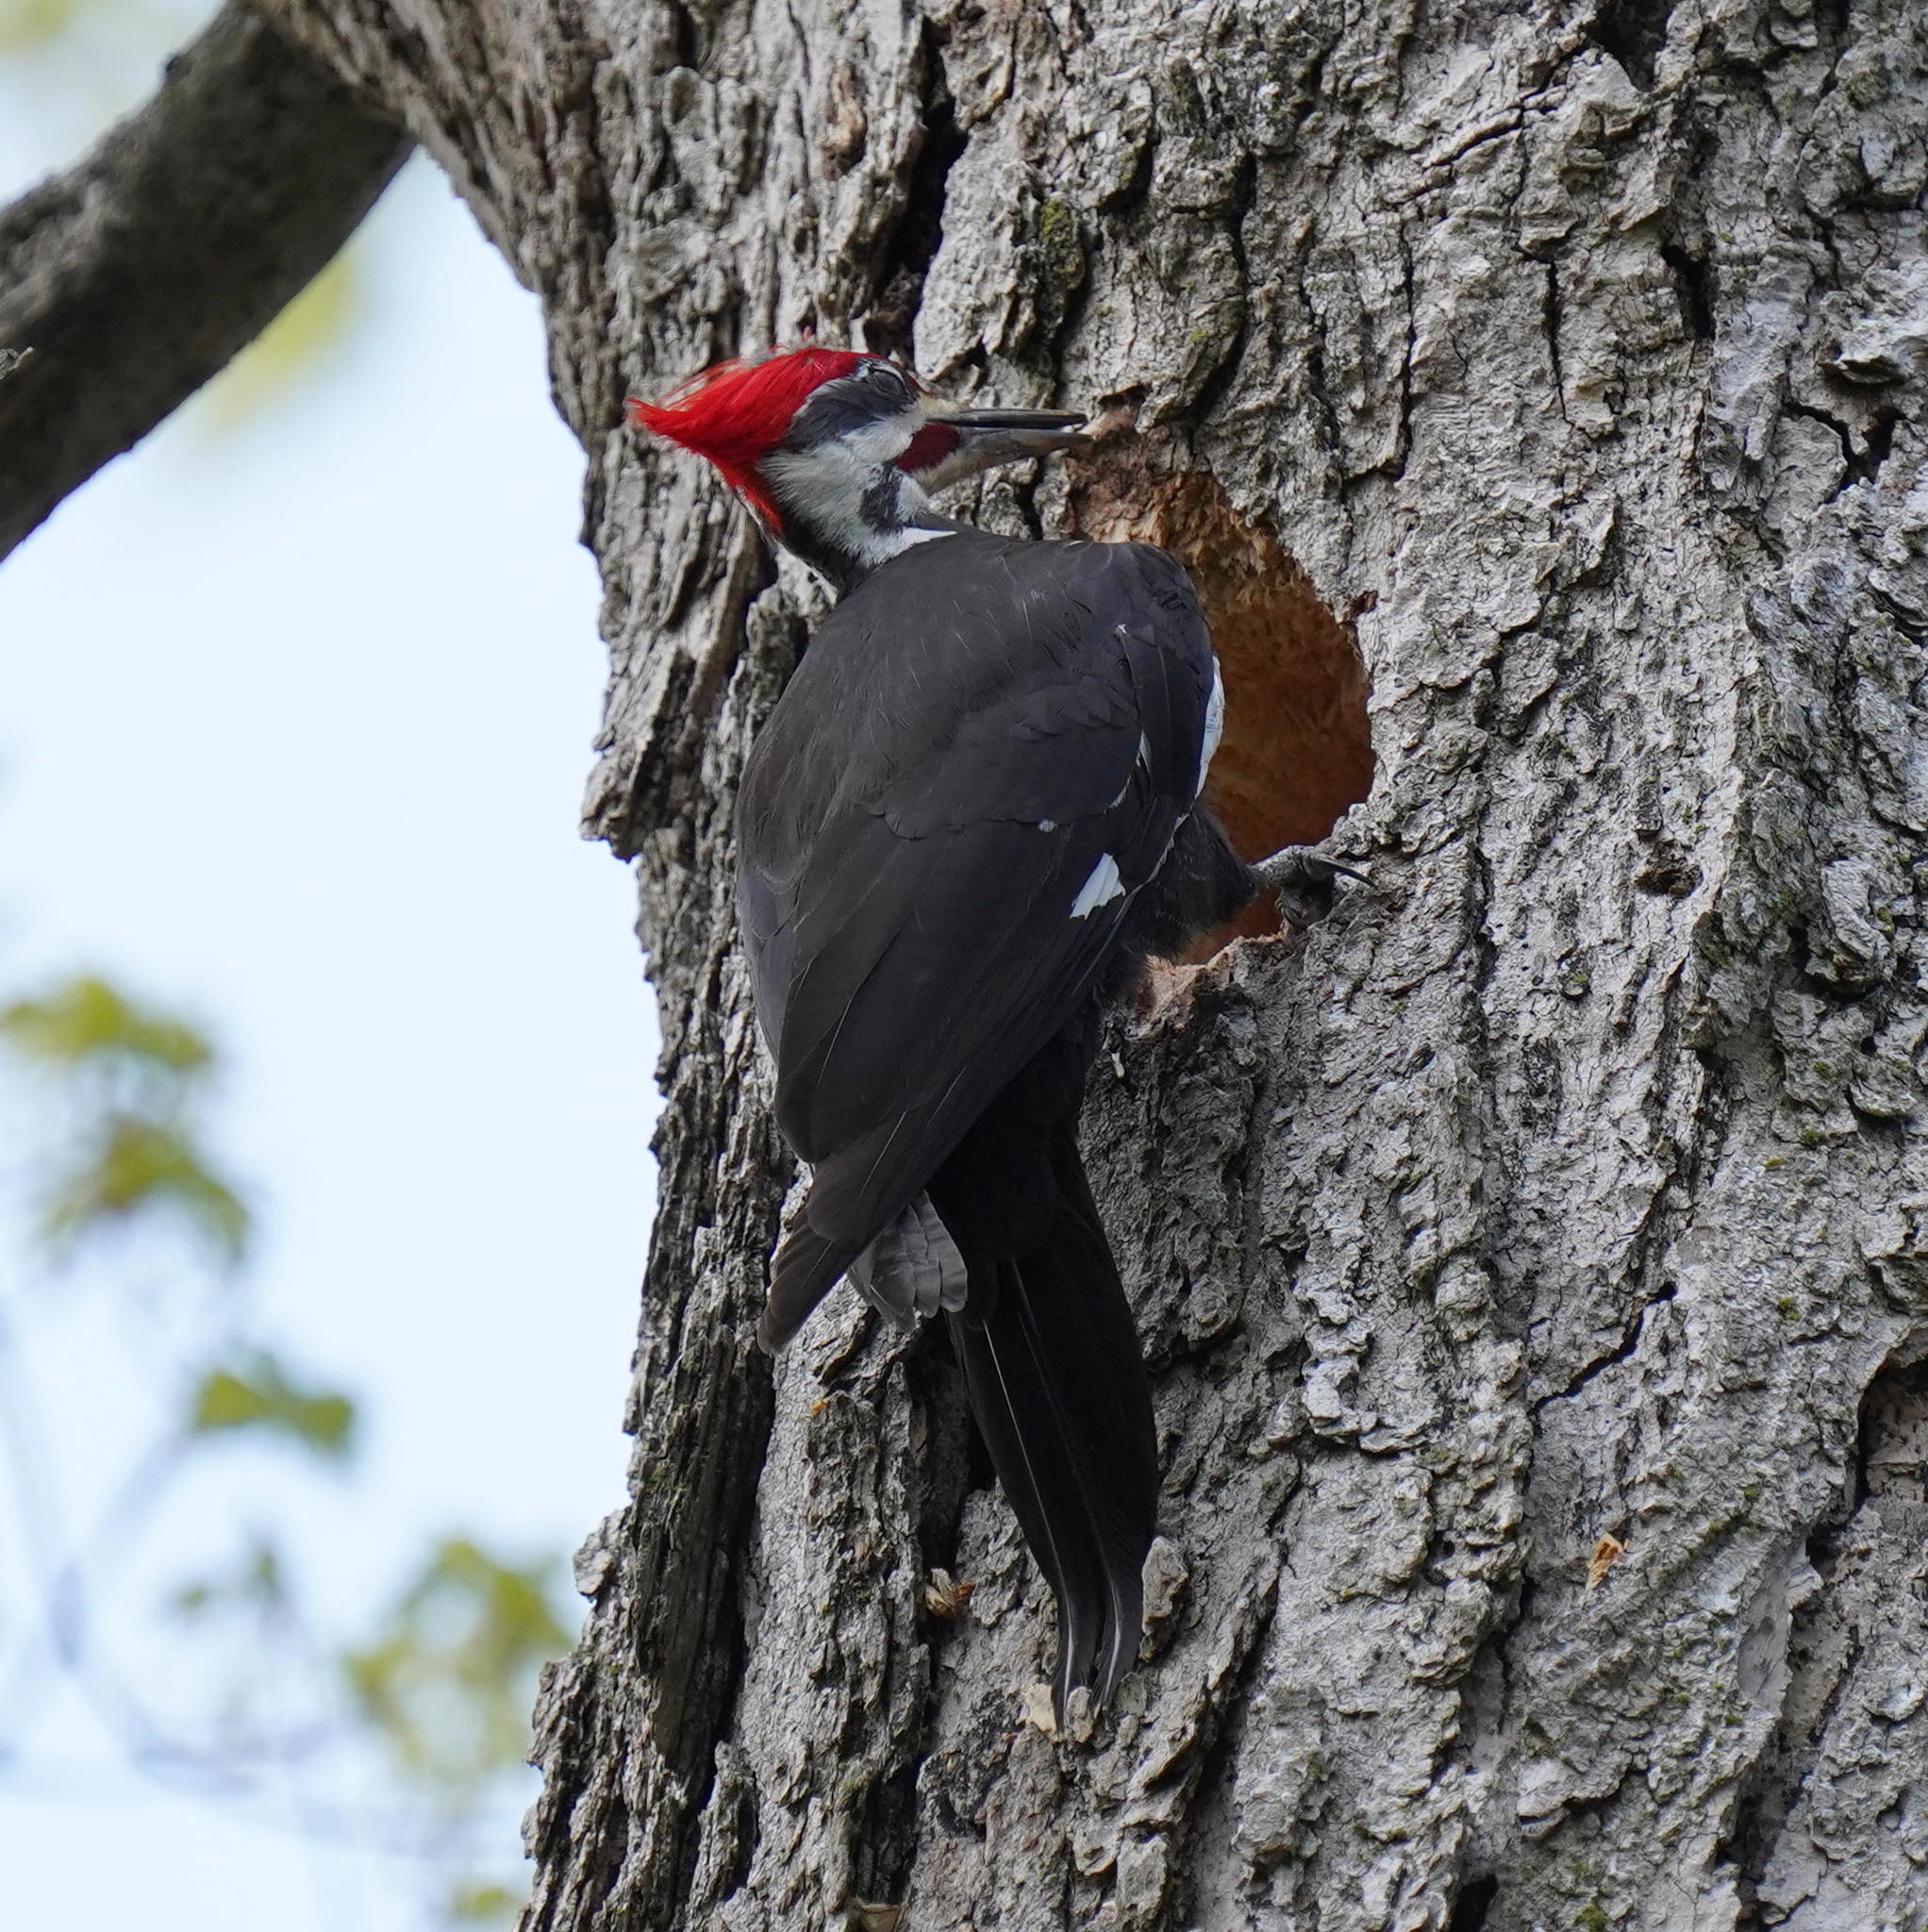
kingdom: Animalia
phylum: Chordata
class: Aves
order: Piciformes
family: Picidae
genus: Dryocopus
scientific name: Dryocopus pileatus
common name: Pileated woodpecker
